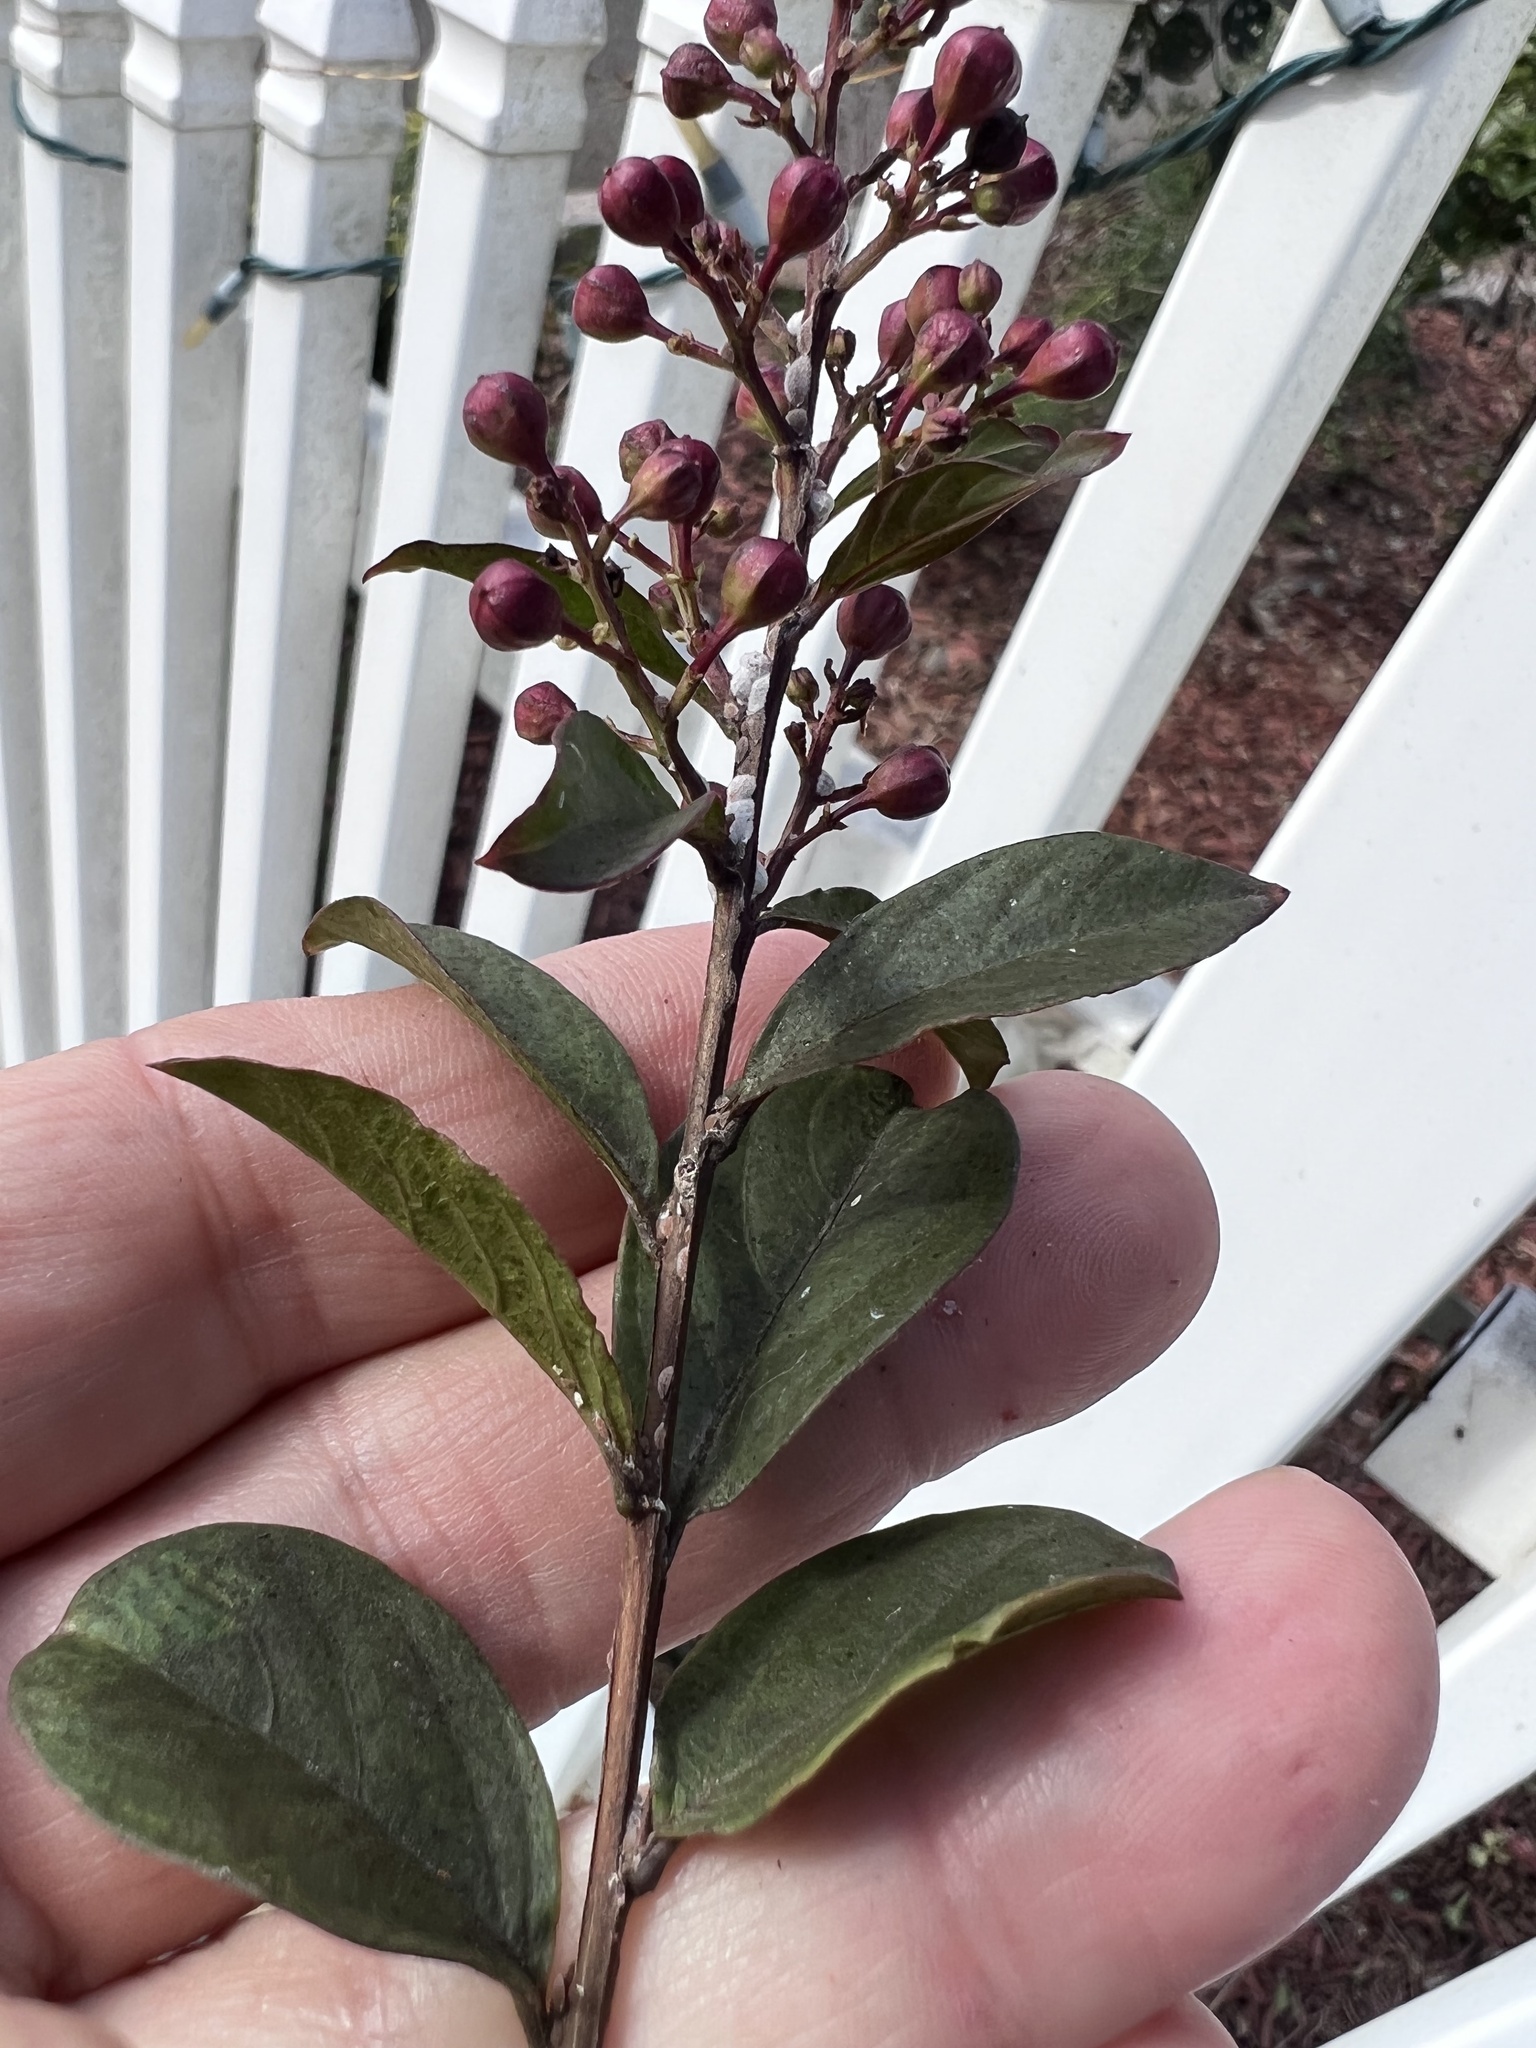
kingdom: Animalia
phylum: Arthropoda
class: Insecta
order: Hemiptera
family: Eriococcidae
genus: Eriococcus
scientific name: Eriococcus lagerstroemiae
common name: Crapemyrtle bark scale
